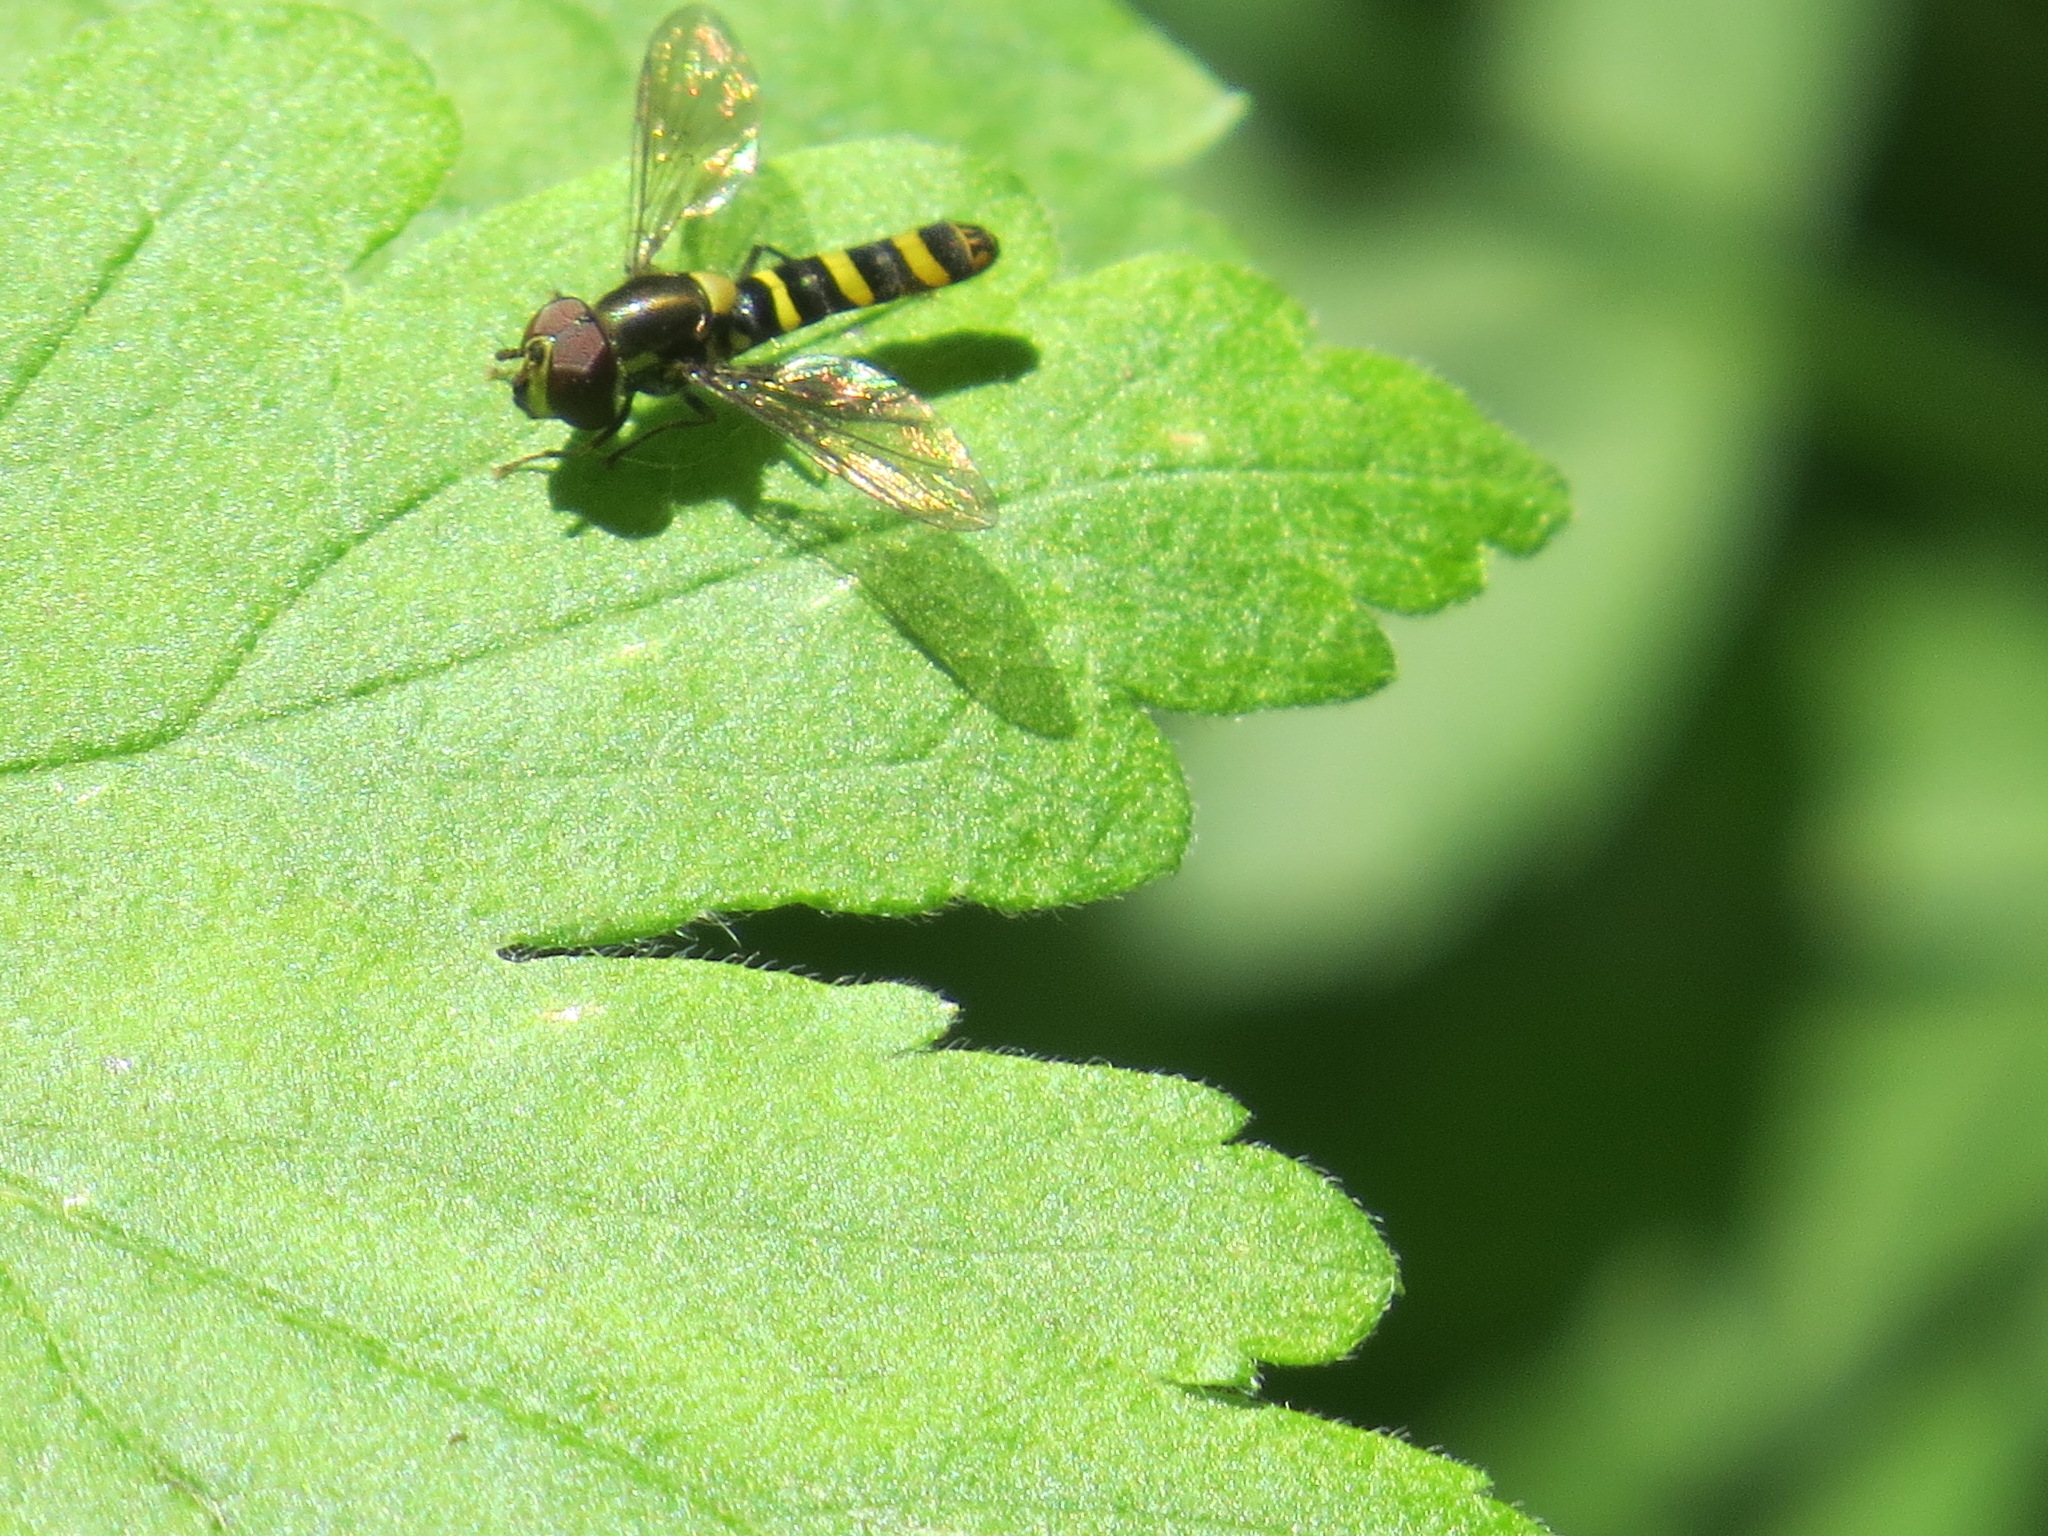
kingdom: Animalia
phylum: Arthropoda
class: Insecta
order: Diptera
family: Syrphidae
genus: Fazia
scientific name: Fazia micrura
